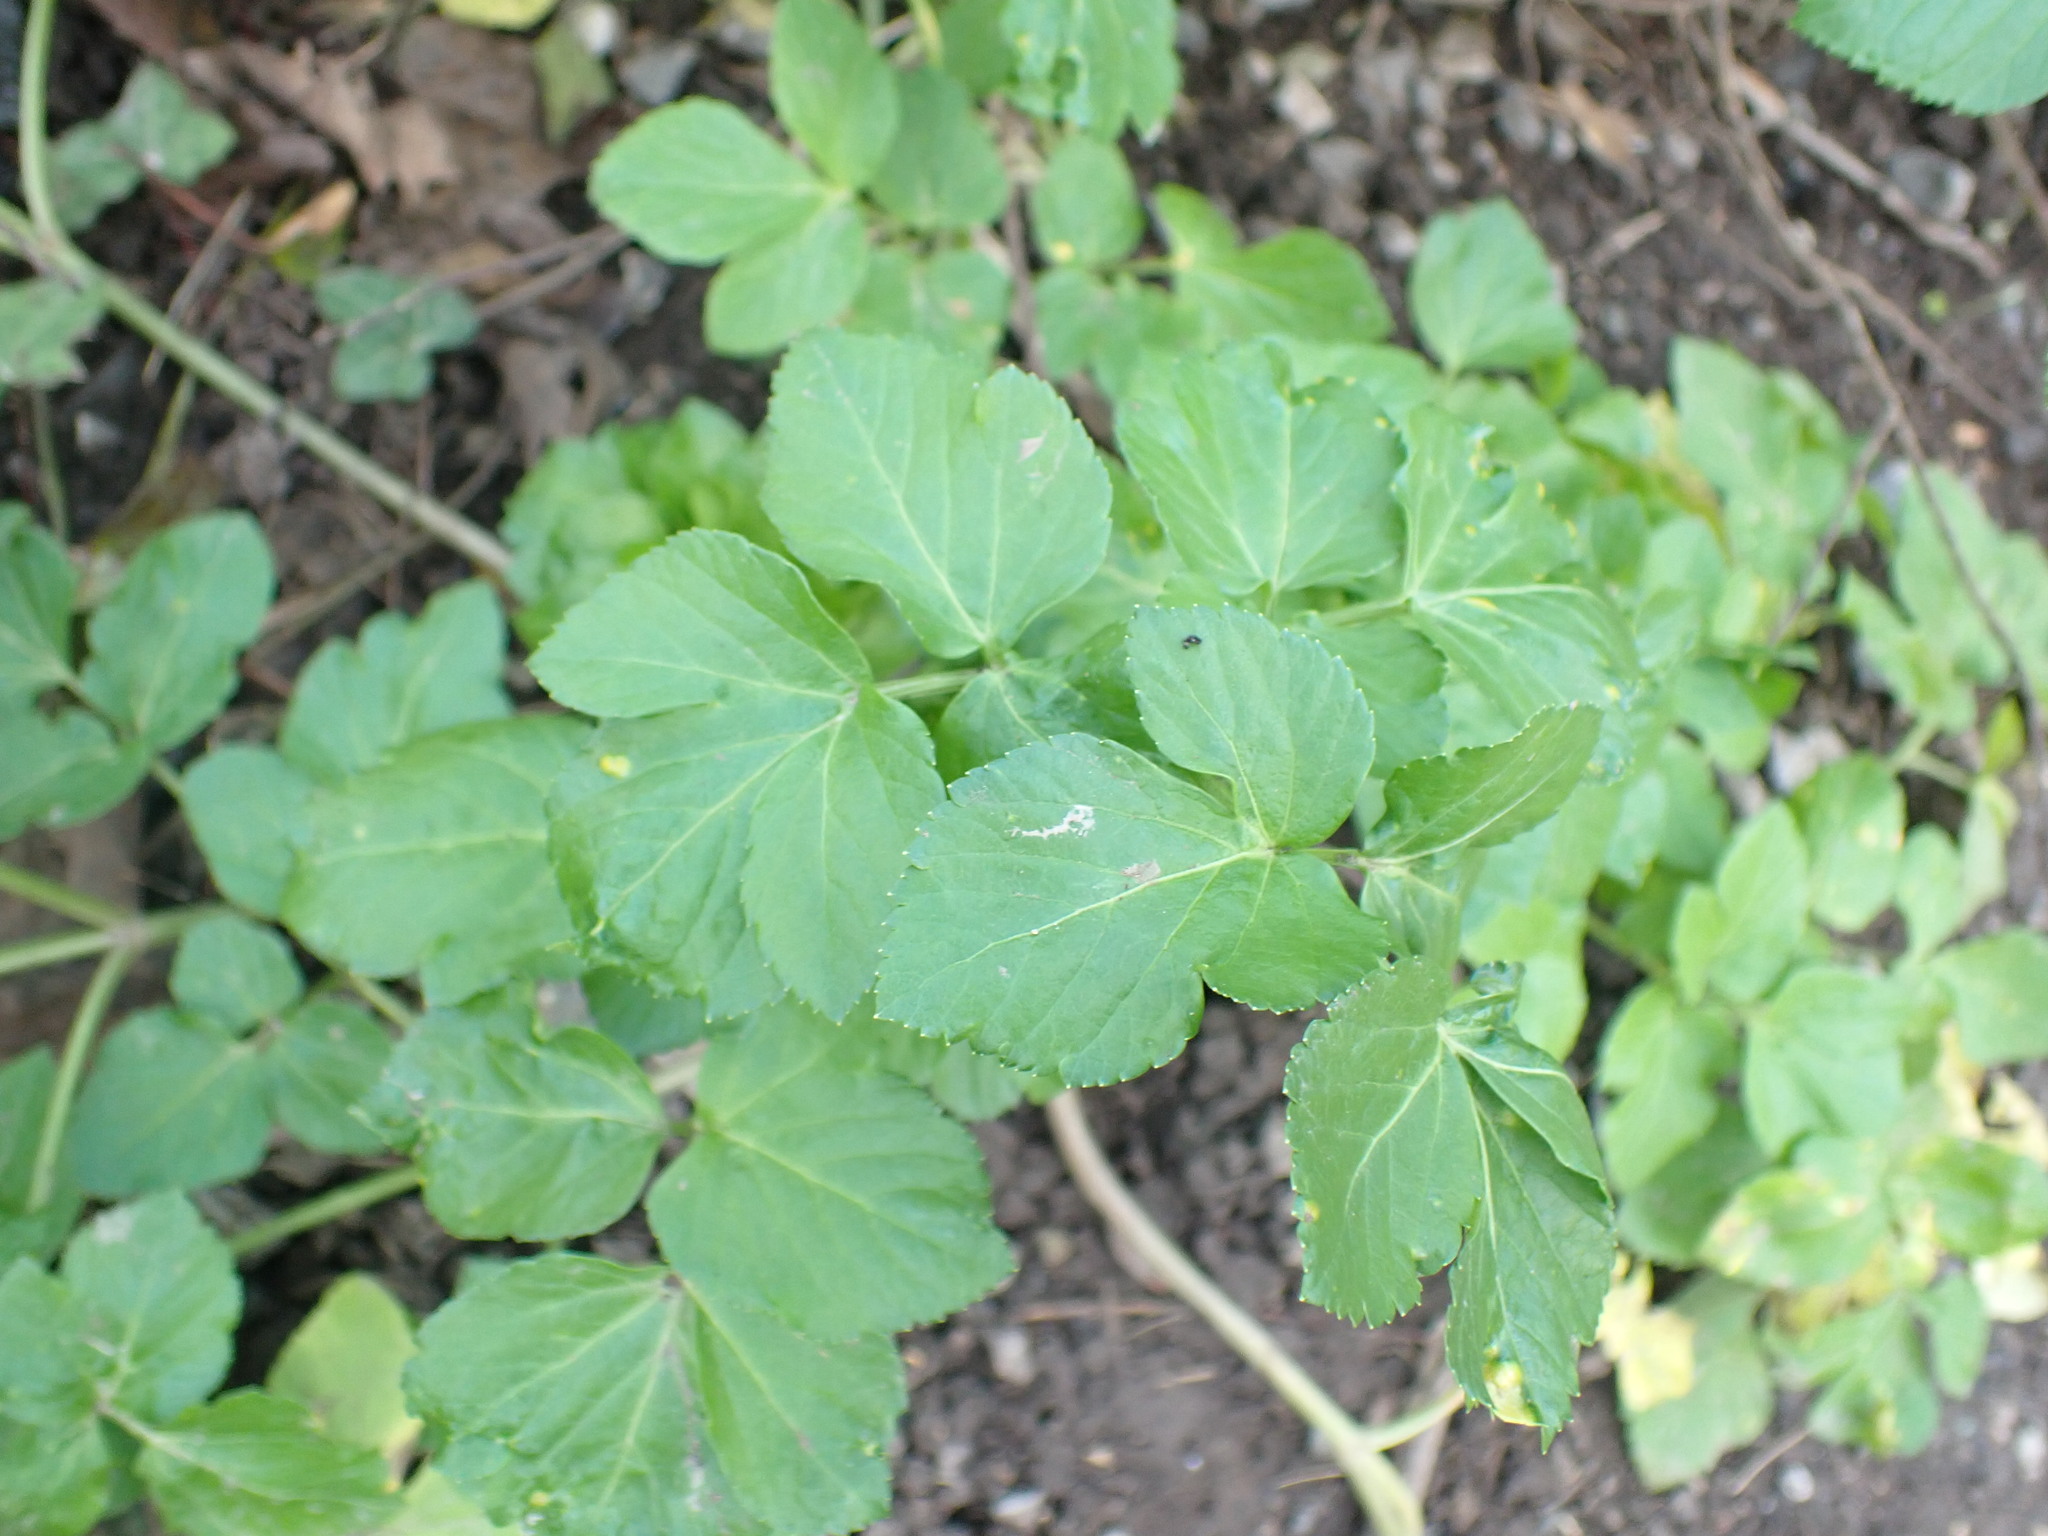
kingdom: Plantae
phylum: Tracheophyta
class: Magnoliopsida
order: Apiales
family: Apiaceae
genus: Smyrnium
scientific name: Smyrnium olusatrum
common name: Alexanders
